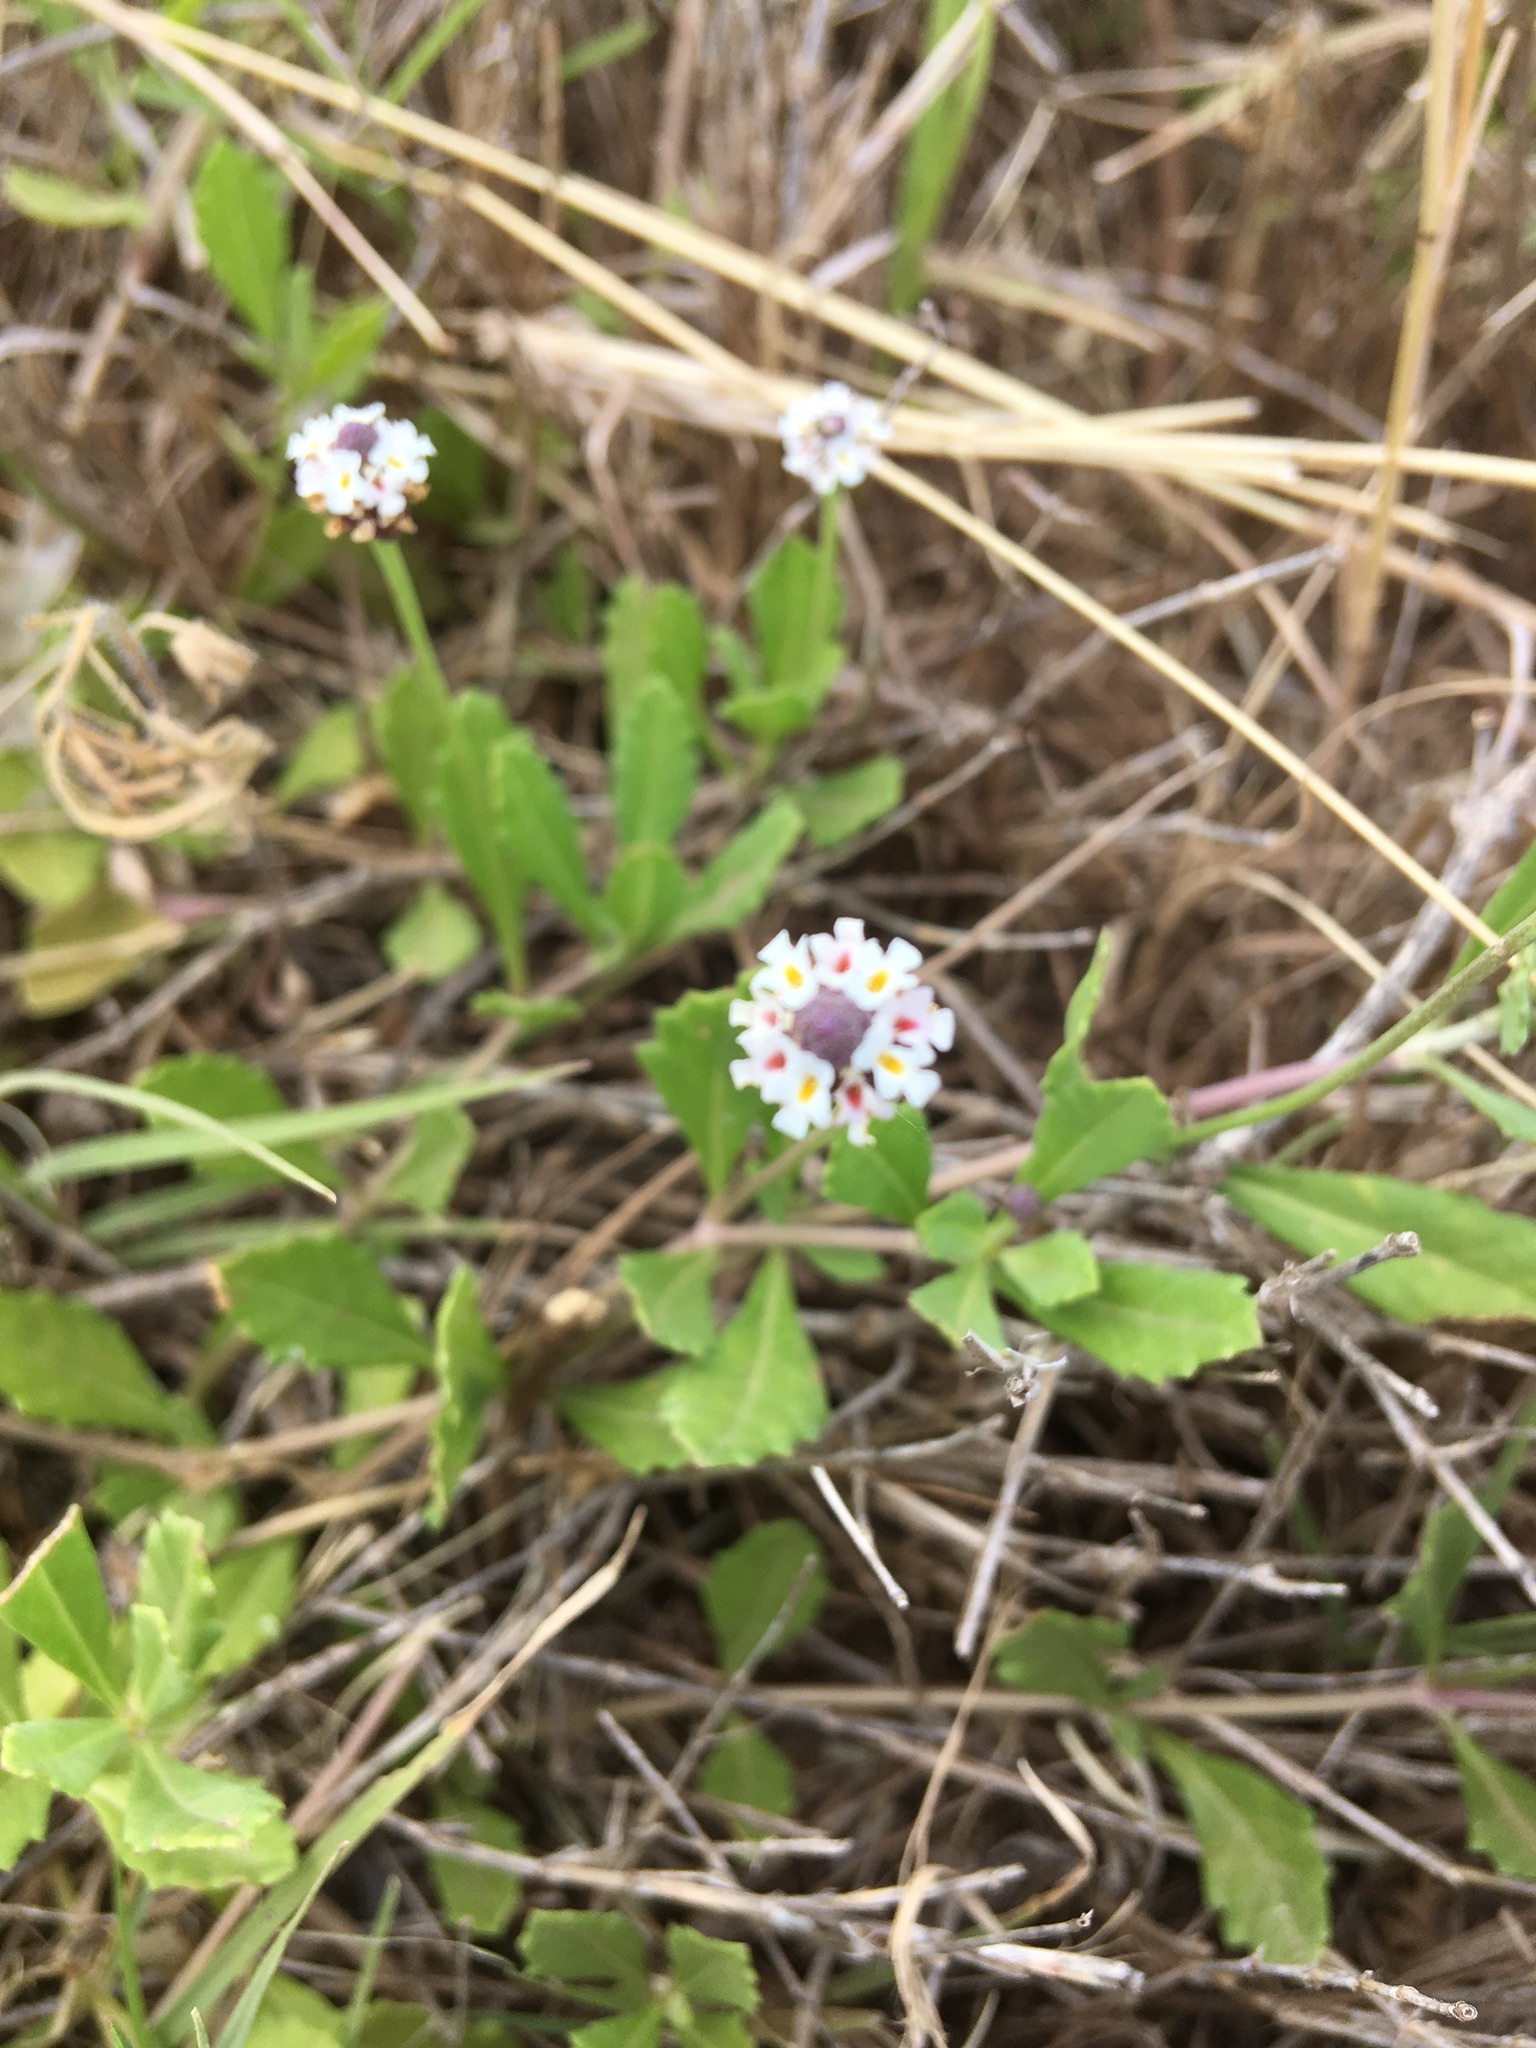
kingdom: Plantae
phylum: Tracheophyta
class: Magnoliopsida
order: Lamiales
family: Verbenaceae
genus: Phyla
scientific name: Phyla nodiflora
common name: Frogfruit
